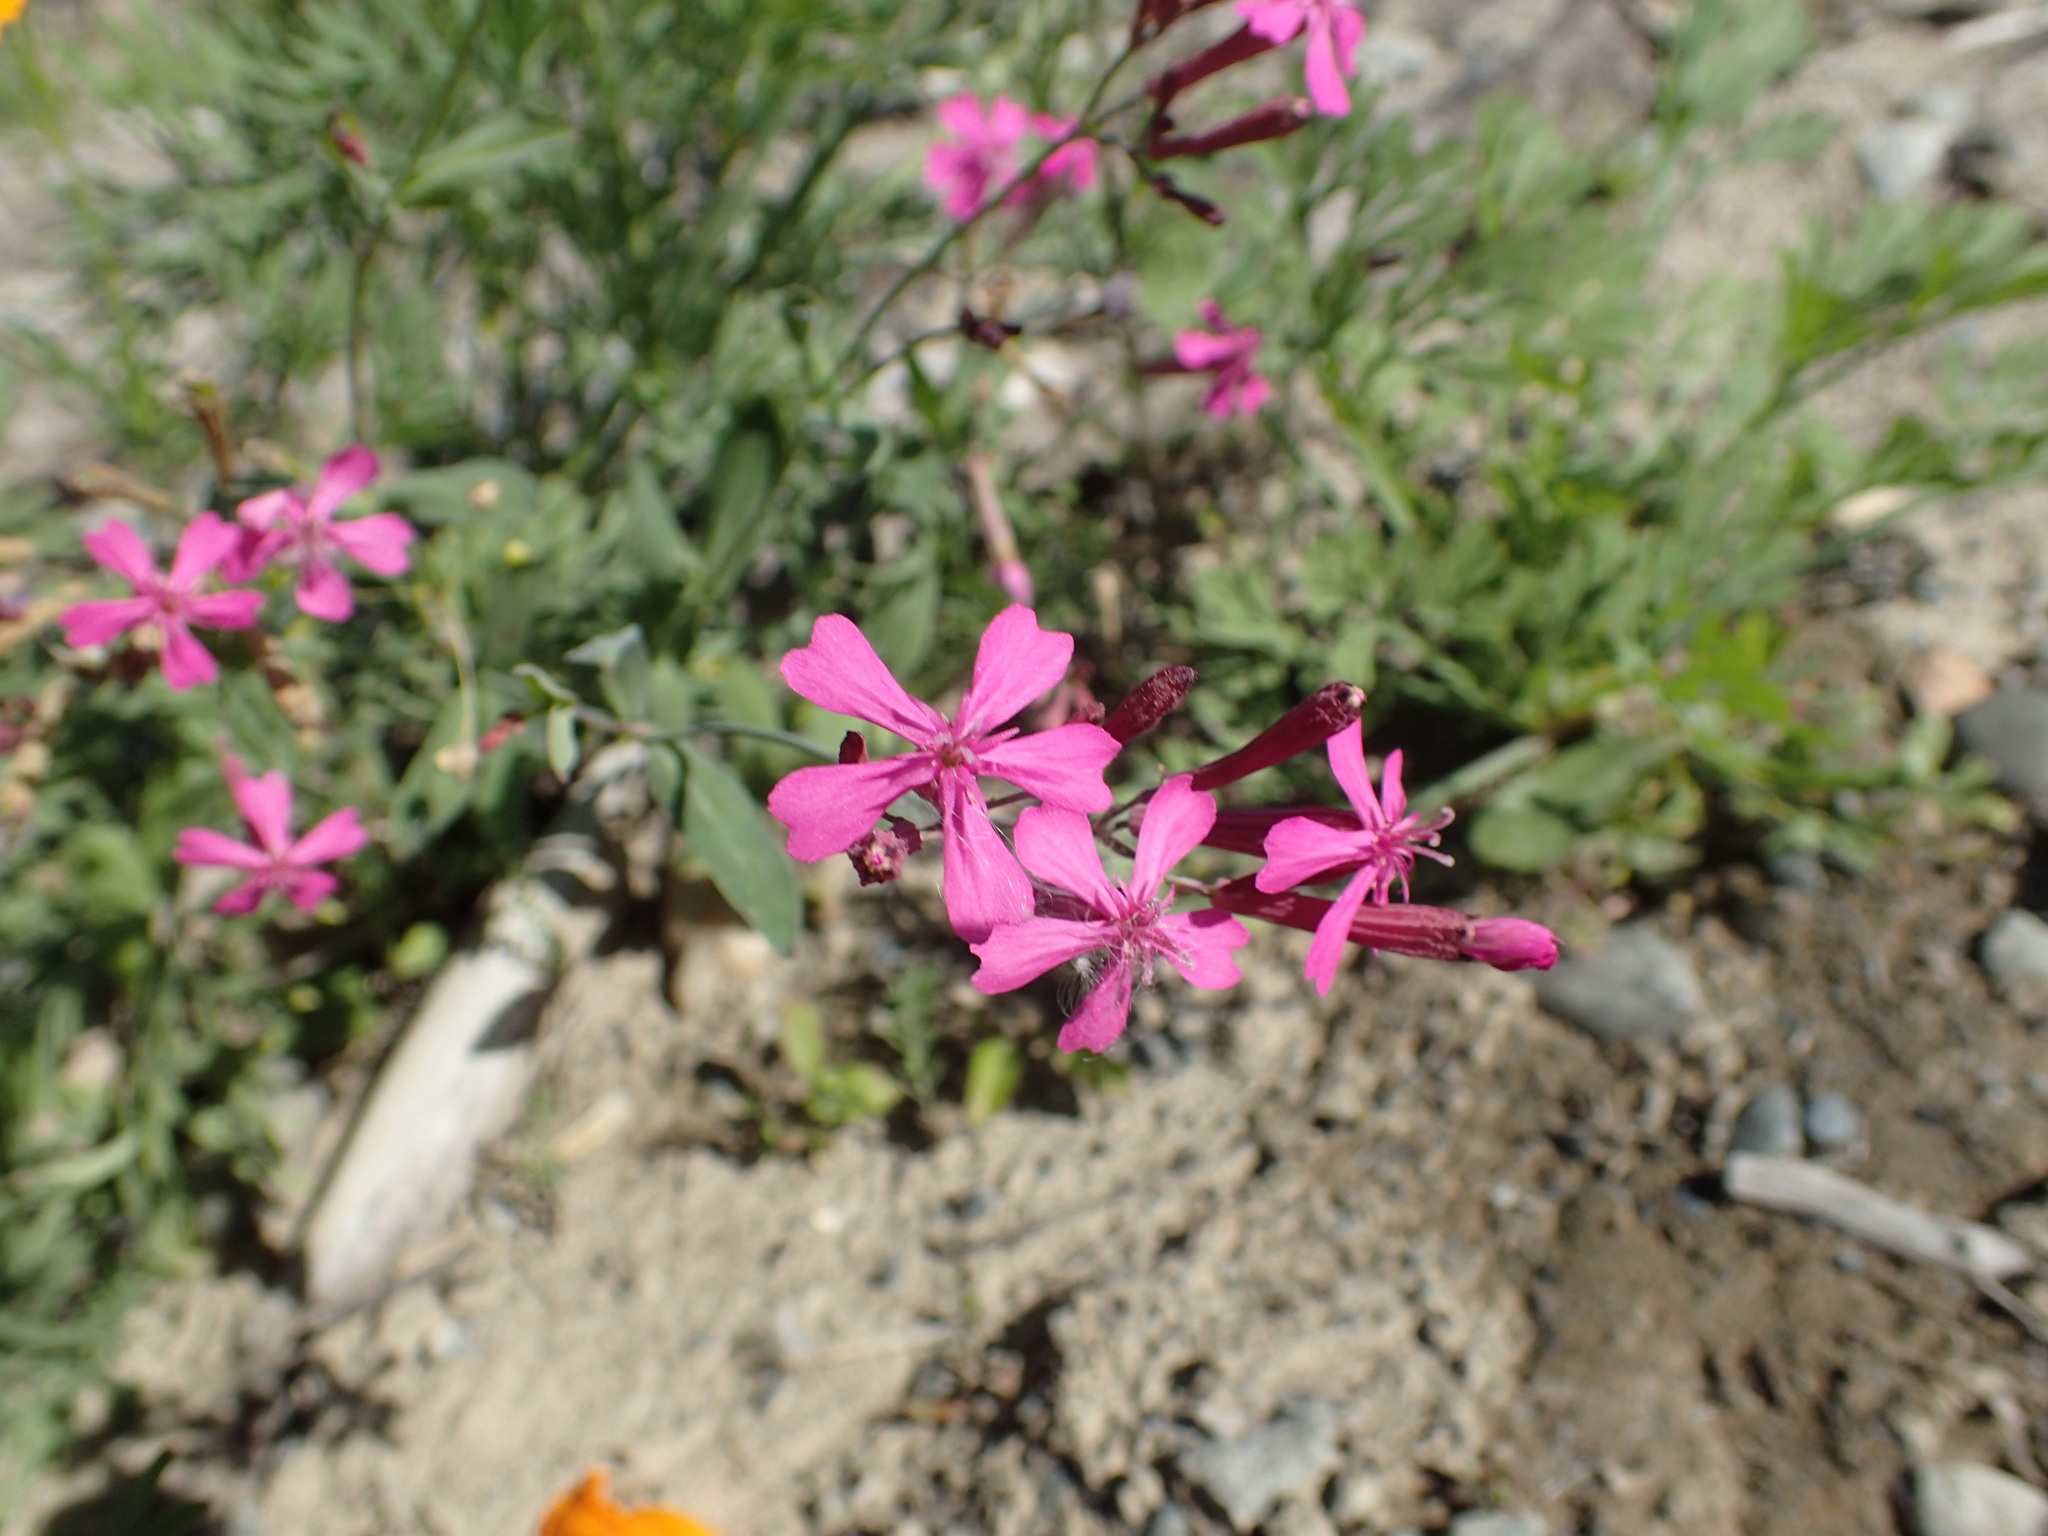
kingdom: Plantae
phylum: Tracheophyta
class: Magnoliopsida
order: Caryophyllales
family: Caryophyllaceae
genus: Atocion
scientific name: Atocion armeria
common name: Sweet william catchfly
